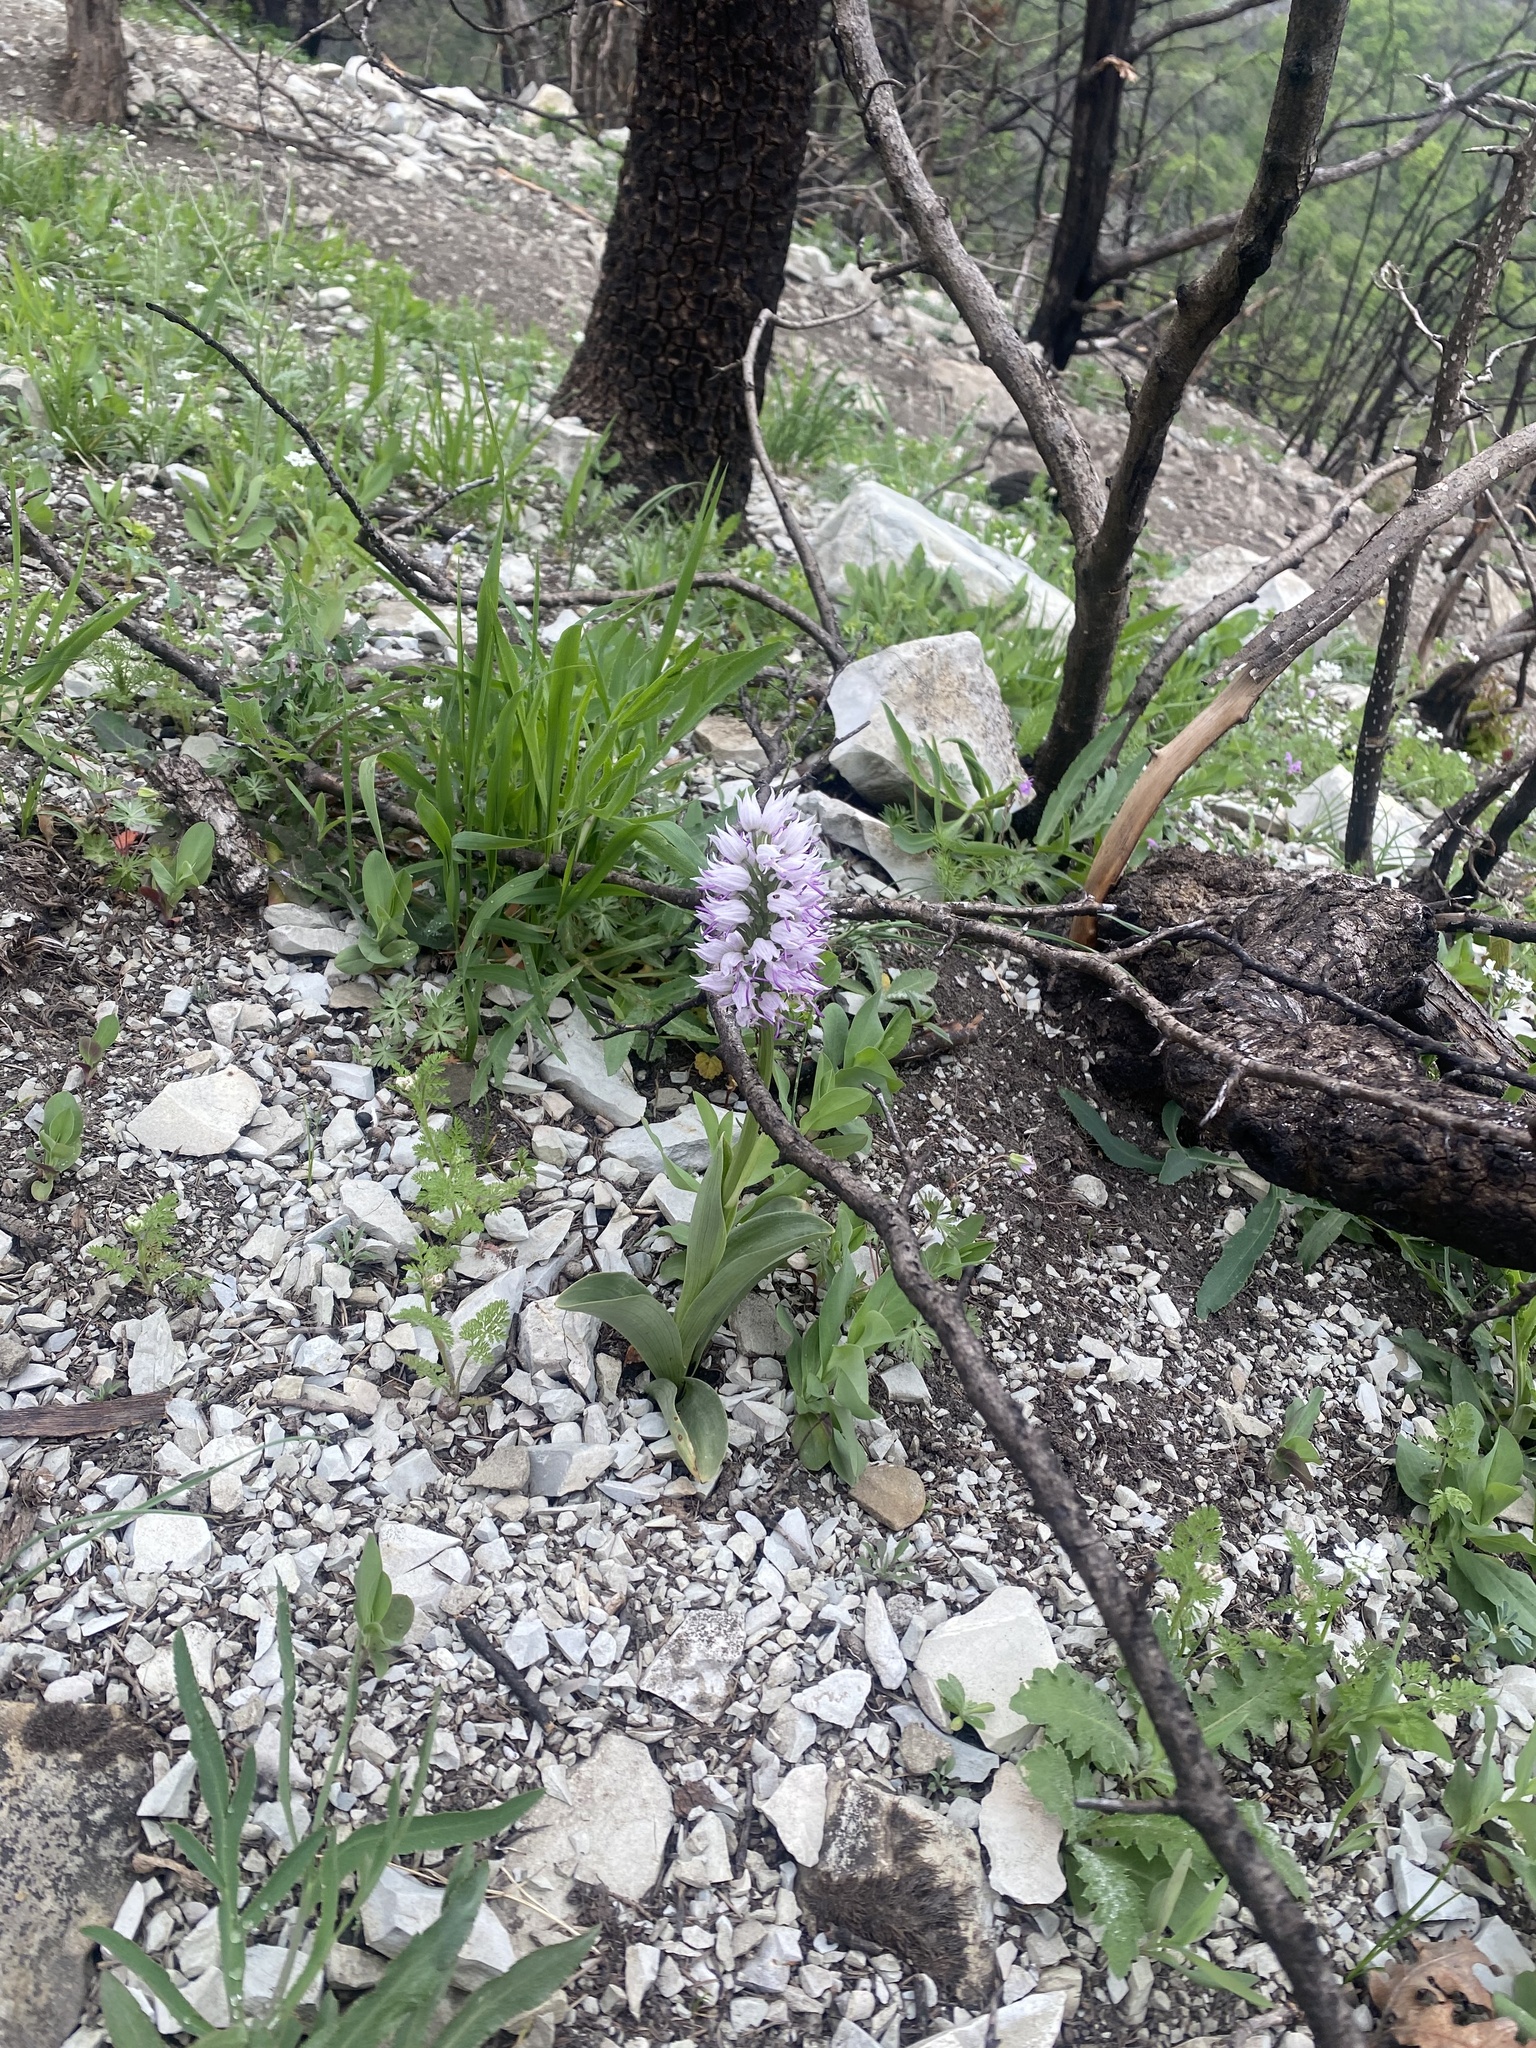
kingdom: Plantae
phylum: Tracheophyta
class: Liliopsida
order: Asparagales
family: Orchidaceae
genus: Orchis
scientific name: Orchis simia
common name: Monkey orchid
